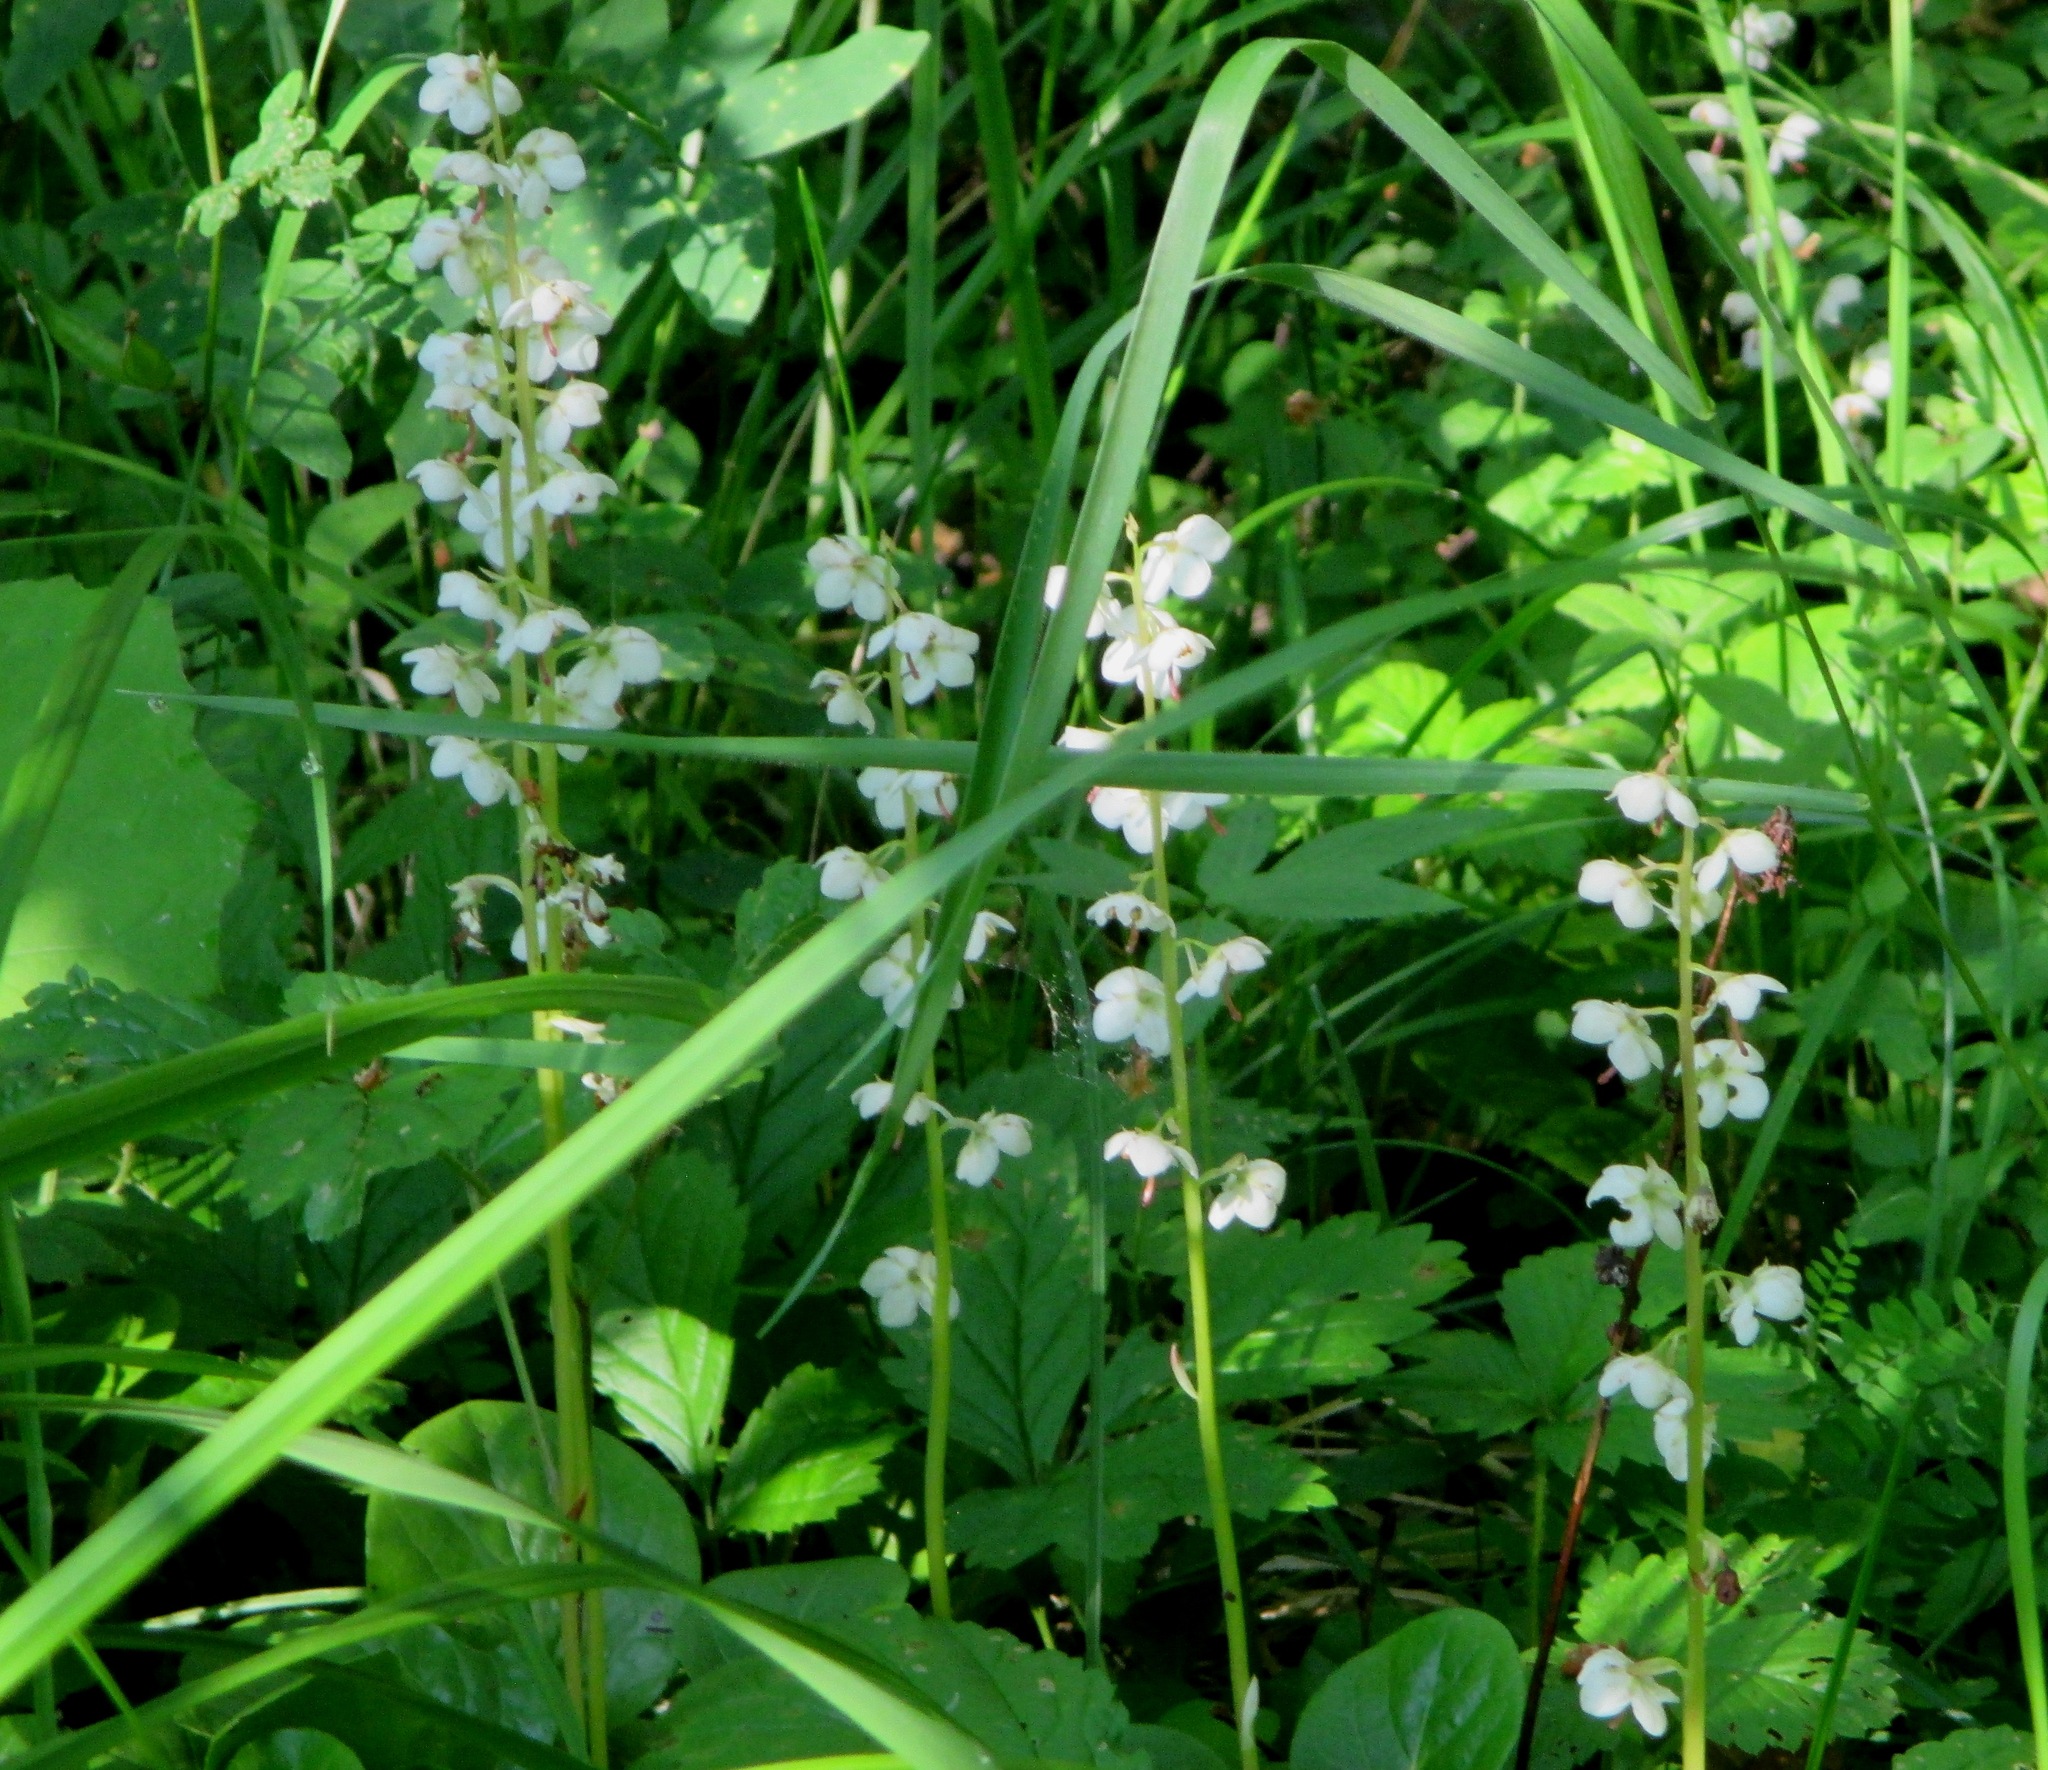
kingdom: Plantae
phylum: Tracheophyta
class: Magnoliopsida
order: Ericales
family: Ericaceae
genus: Pyrola
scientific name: Pyrola rotundifolia
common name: Round-leaved wintergreen
